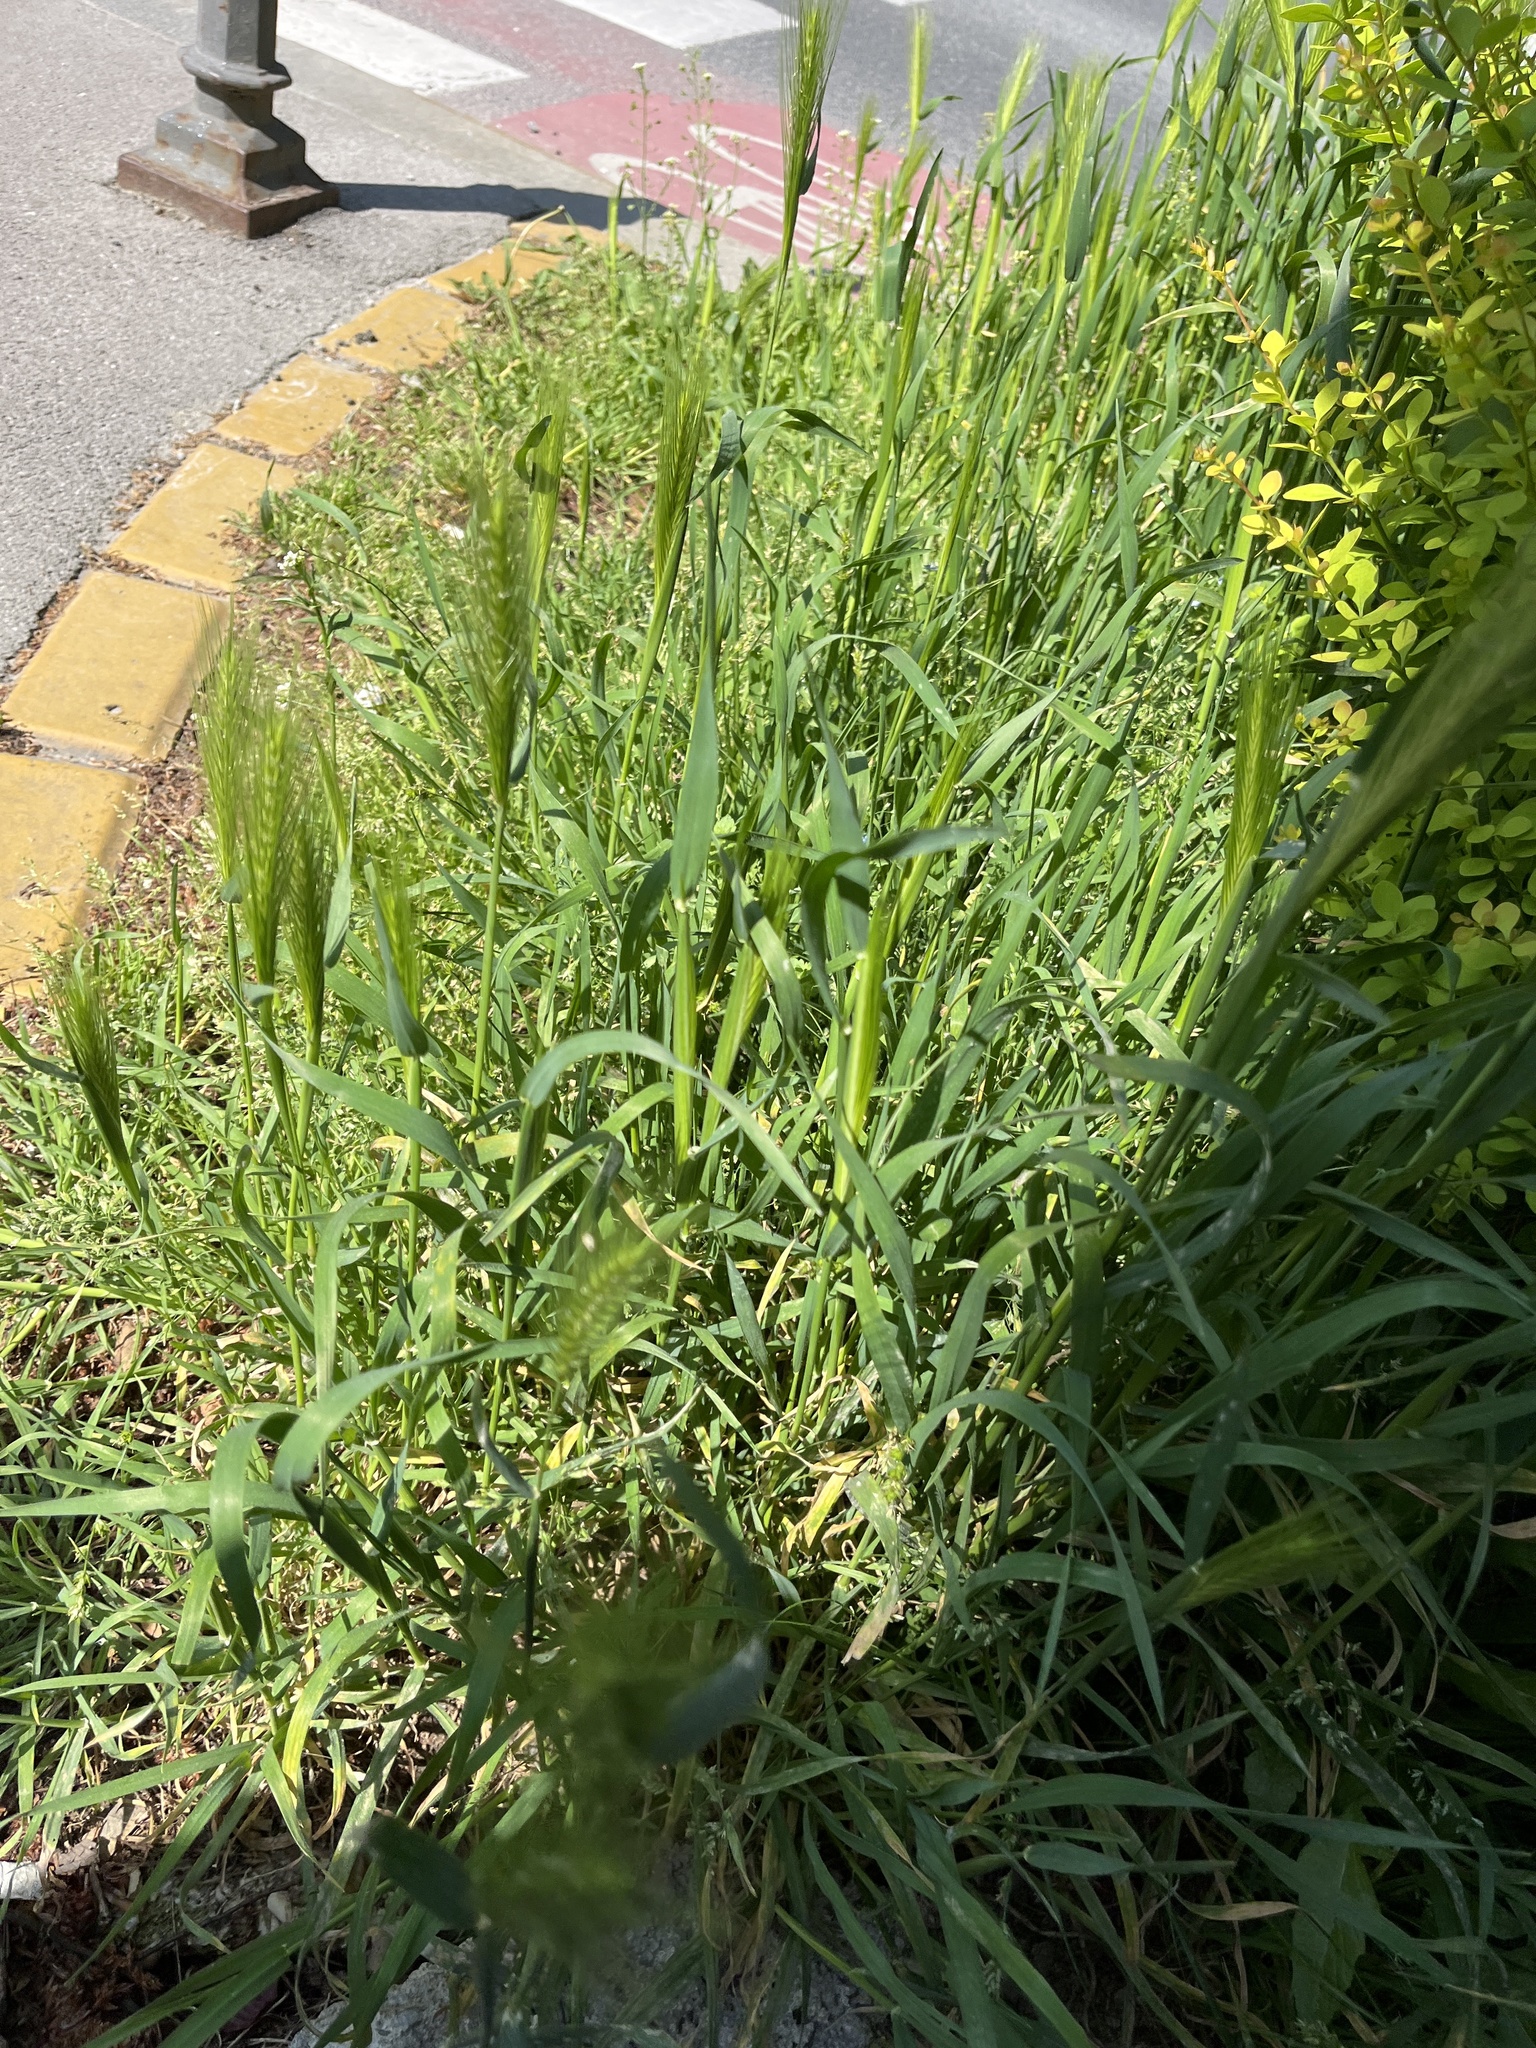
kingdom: Plantae
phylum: Tracheophyta
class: Liliopsida
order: Poales
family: Poaceae
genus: Hordeum
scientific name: Hordeum murinum
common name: Wall barley
